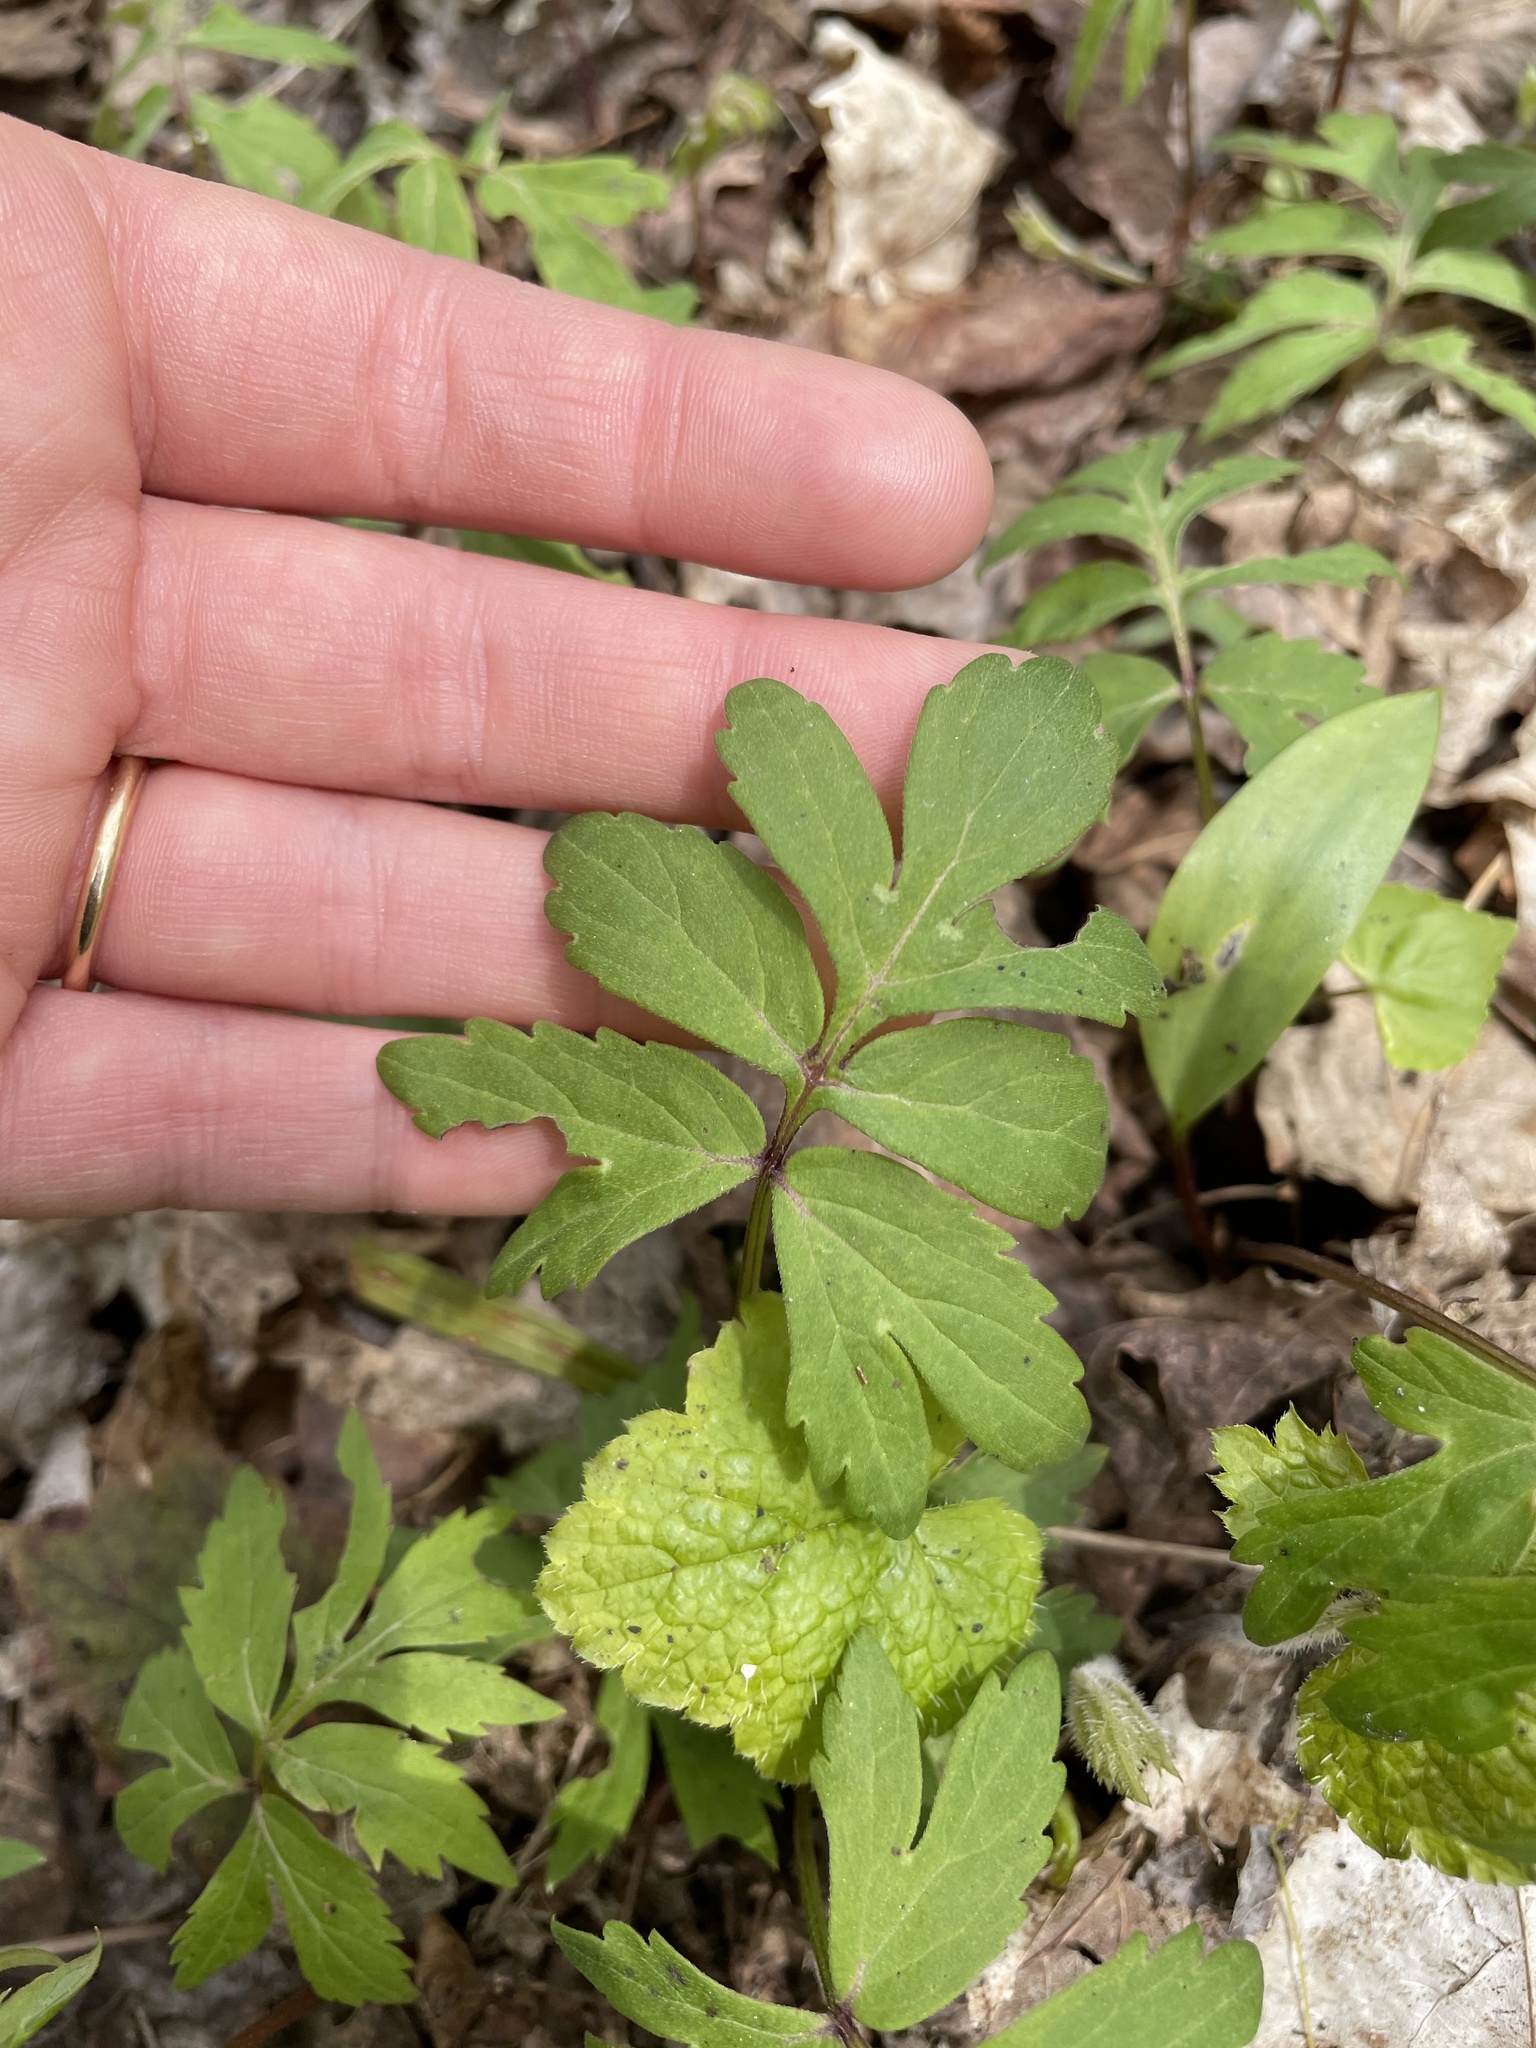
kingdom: Plantae
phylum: Tracheophyta
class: Magnoliopsida
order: Boraginales
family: Hydrophyllaceae
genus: Hydrophyllum
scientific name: Hydrophyllum virginianum
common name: Virginia waterleaf
